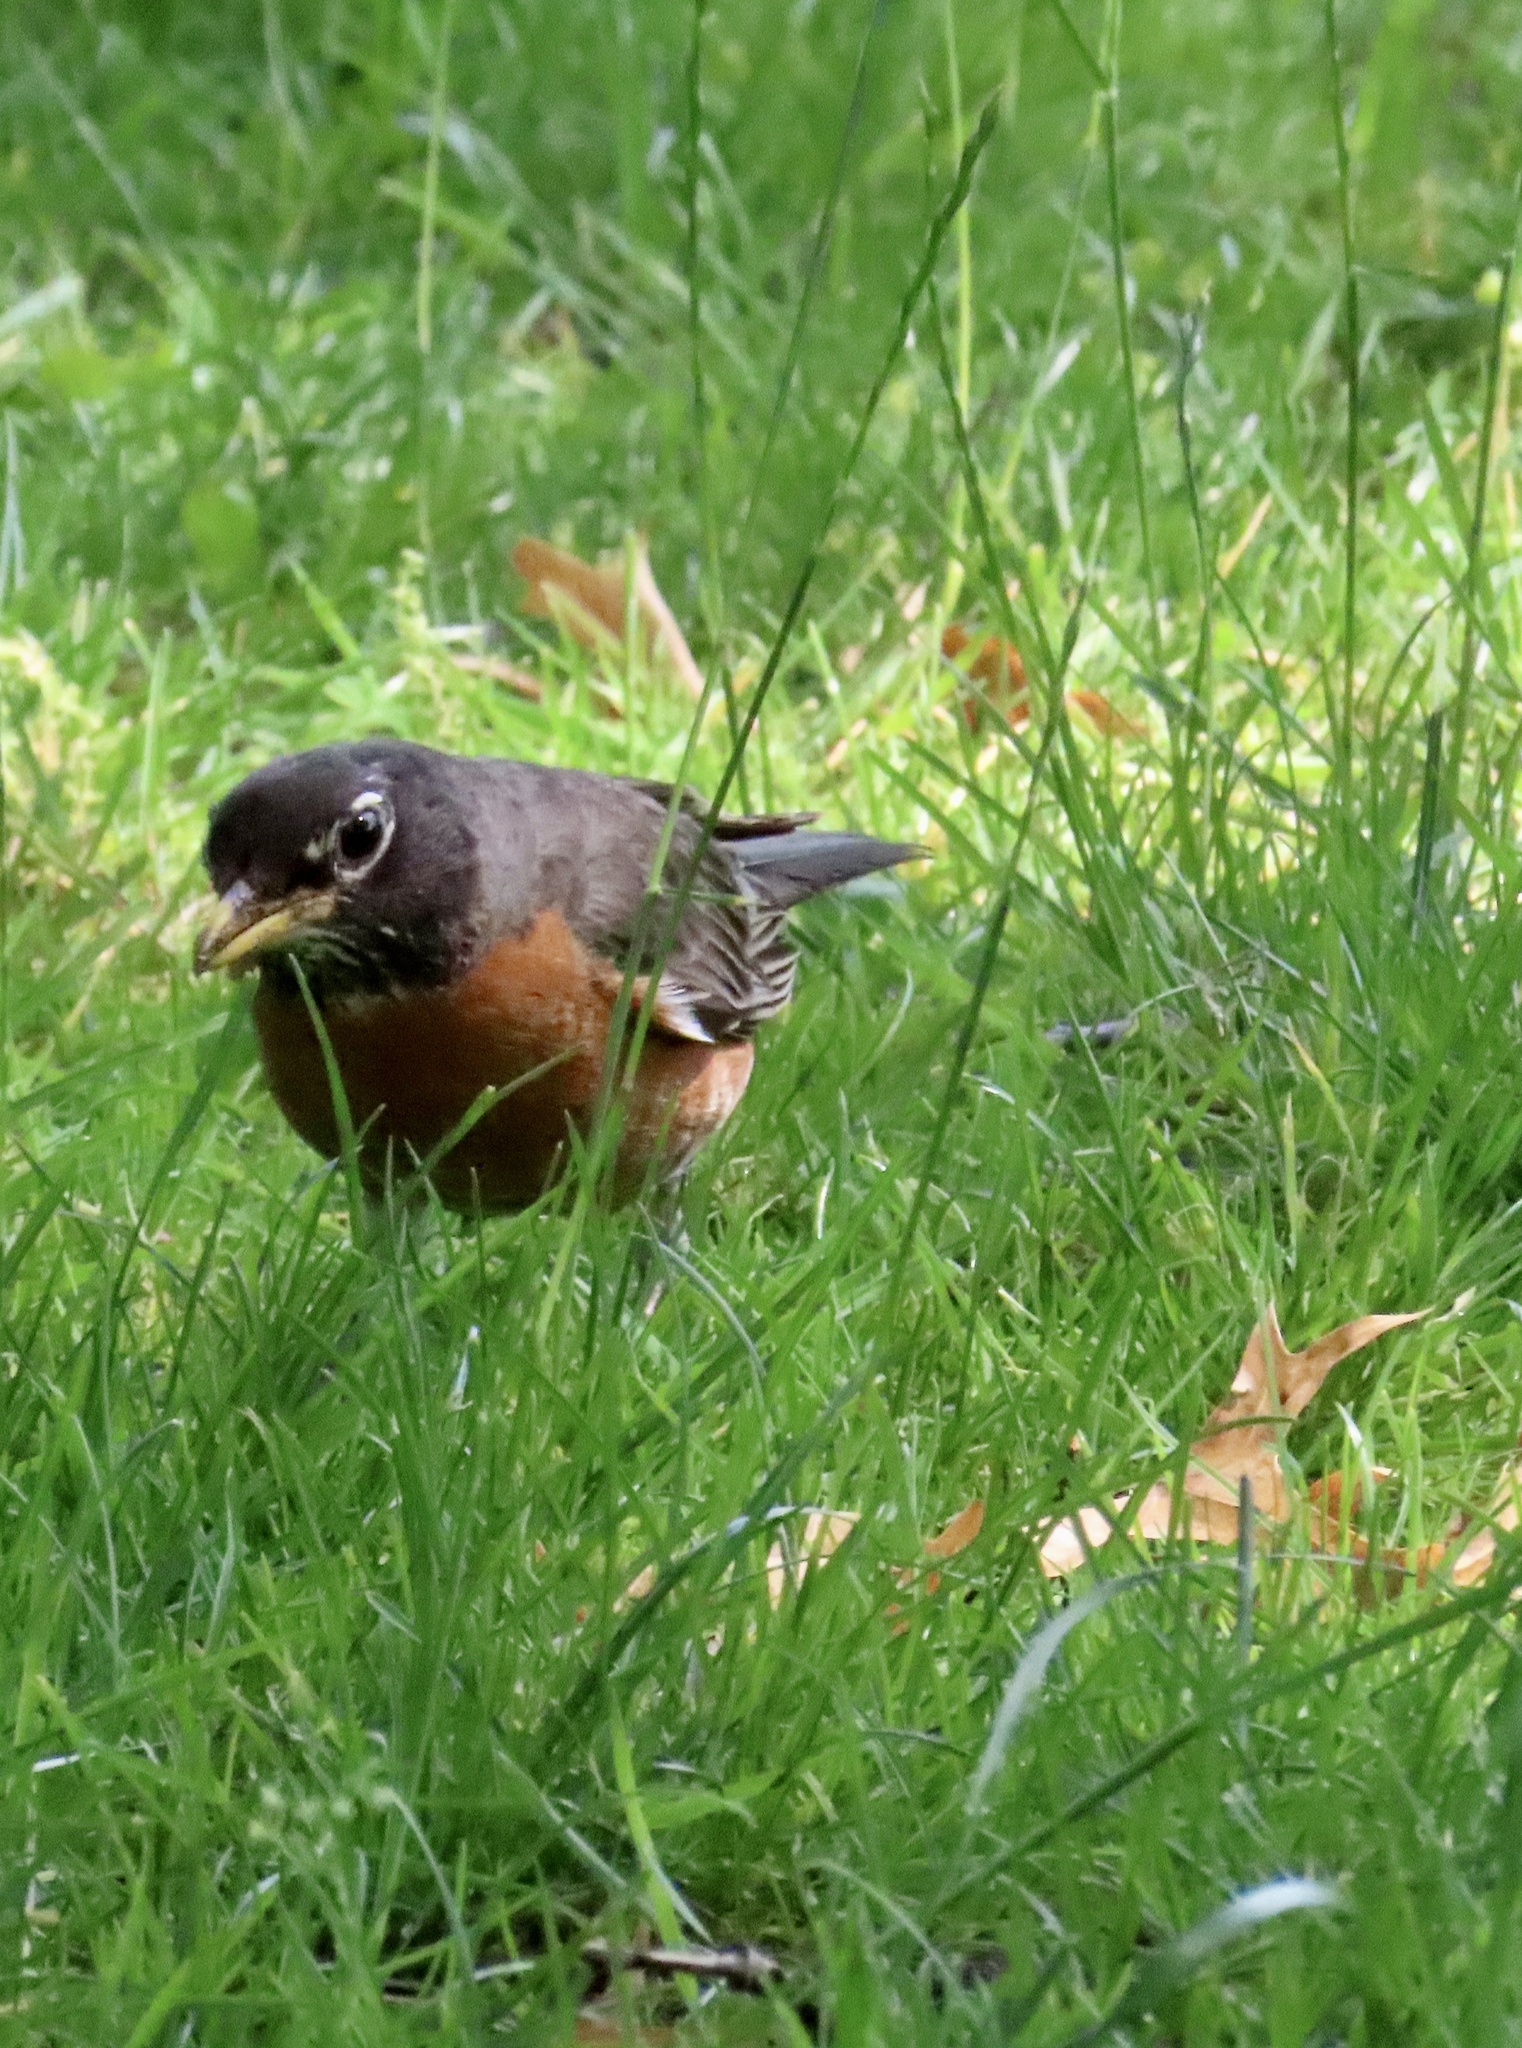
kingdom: Animalia
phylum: Chordata
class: Aves
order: Passeriformes
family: Turdidae
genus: Turdus
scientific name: Turdus migratorius
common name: American robin
